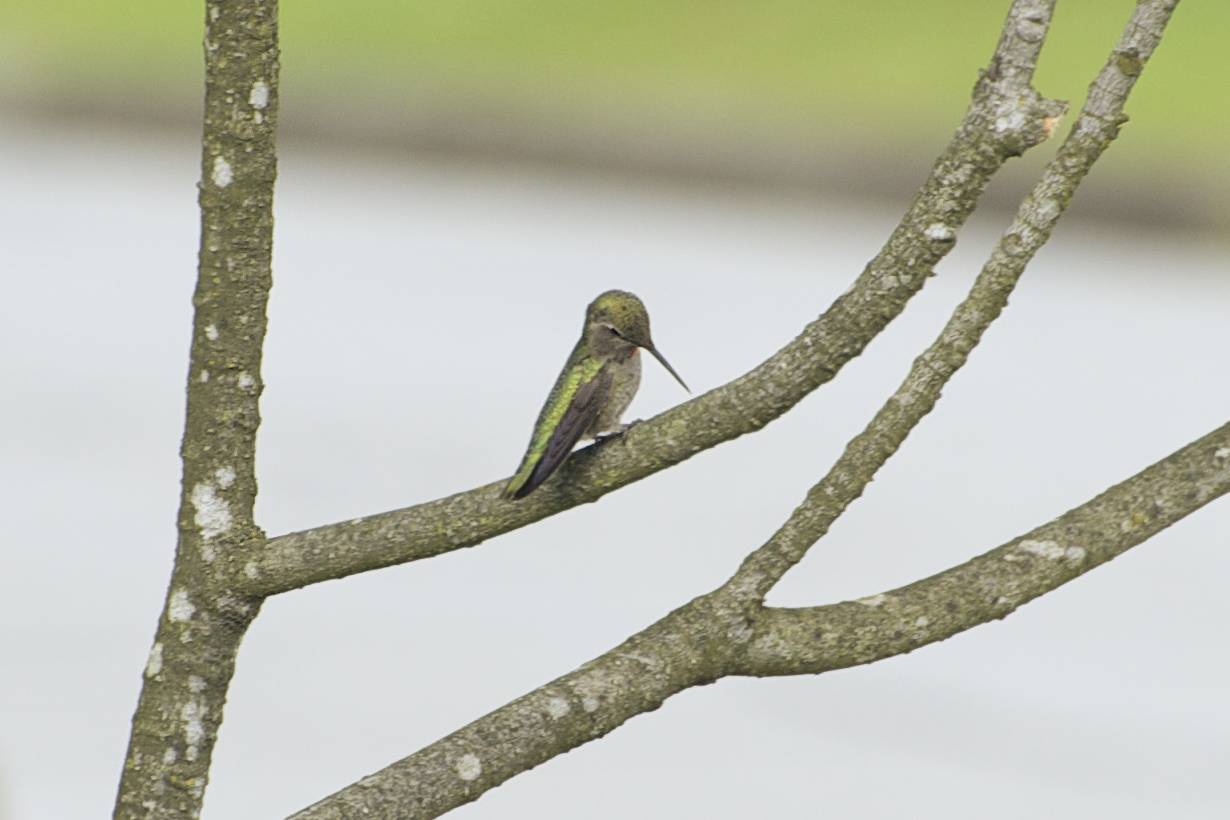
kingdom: Animalia
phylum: Chordata
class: Aves
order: Apodiformes
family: Trochilidae
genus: Calypte
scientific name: Calypte anna
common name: Anna's hummingbird
